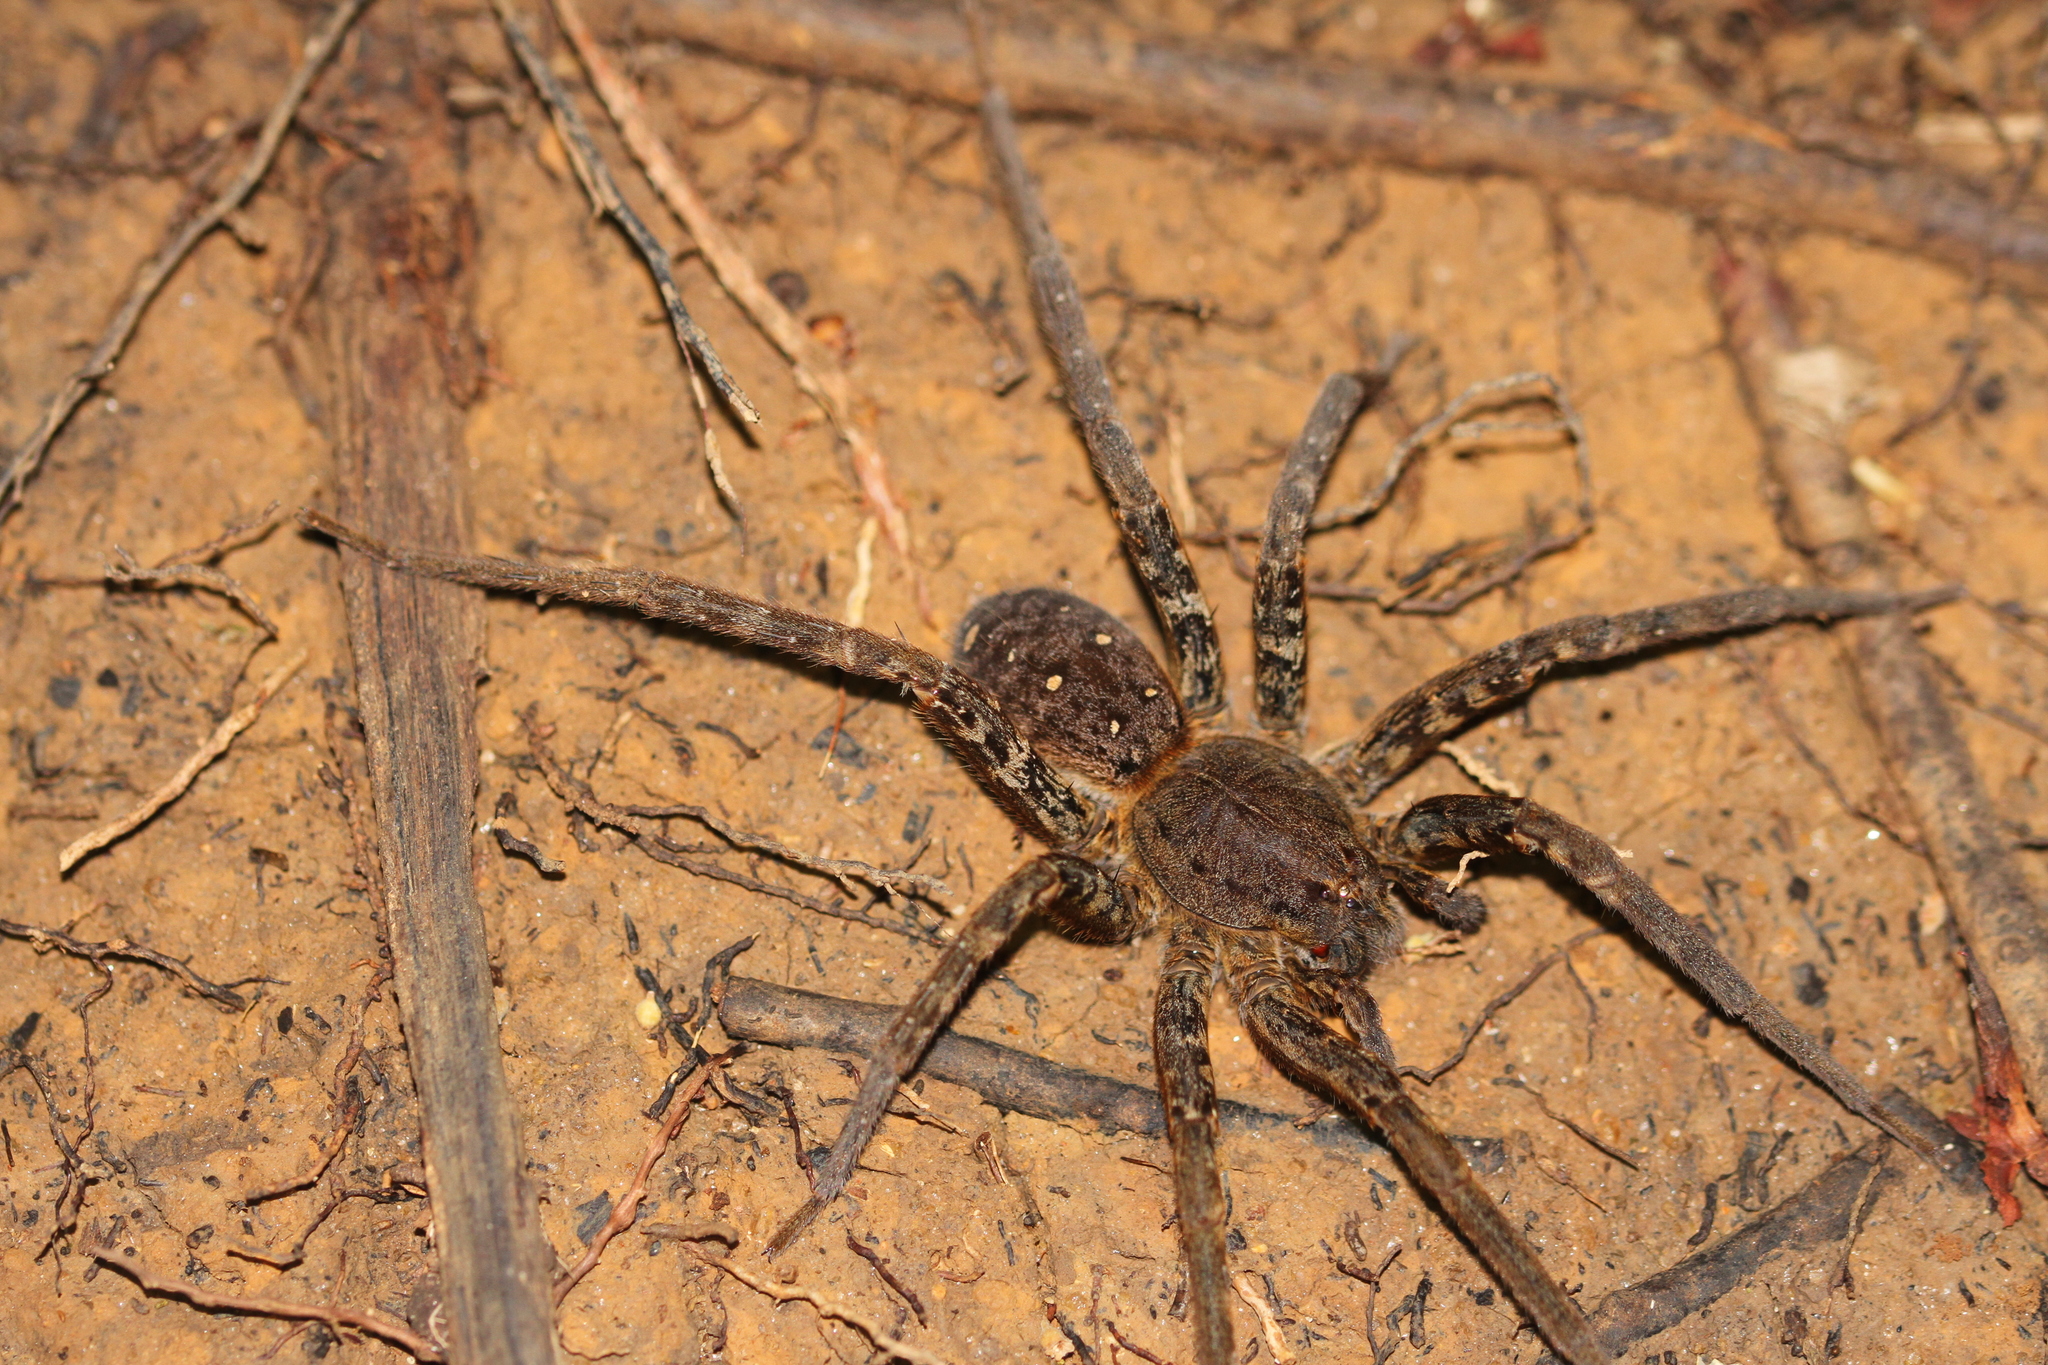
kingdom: Animalia
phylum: Arthropoda
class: Arachnida
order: Araneae
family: Ctenidae
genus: Ancylometes
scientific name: Ancylometes
